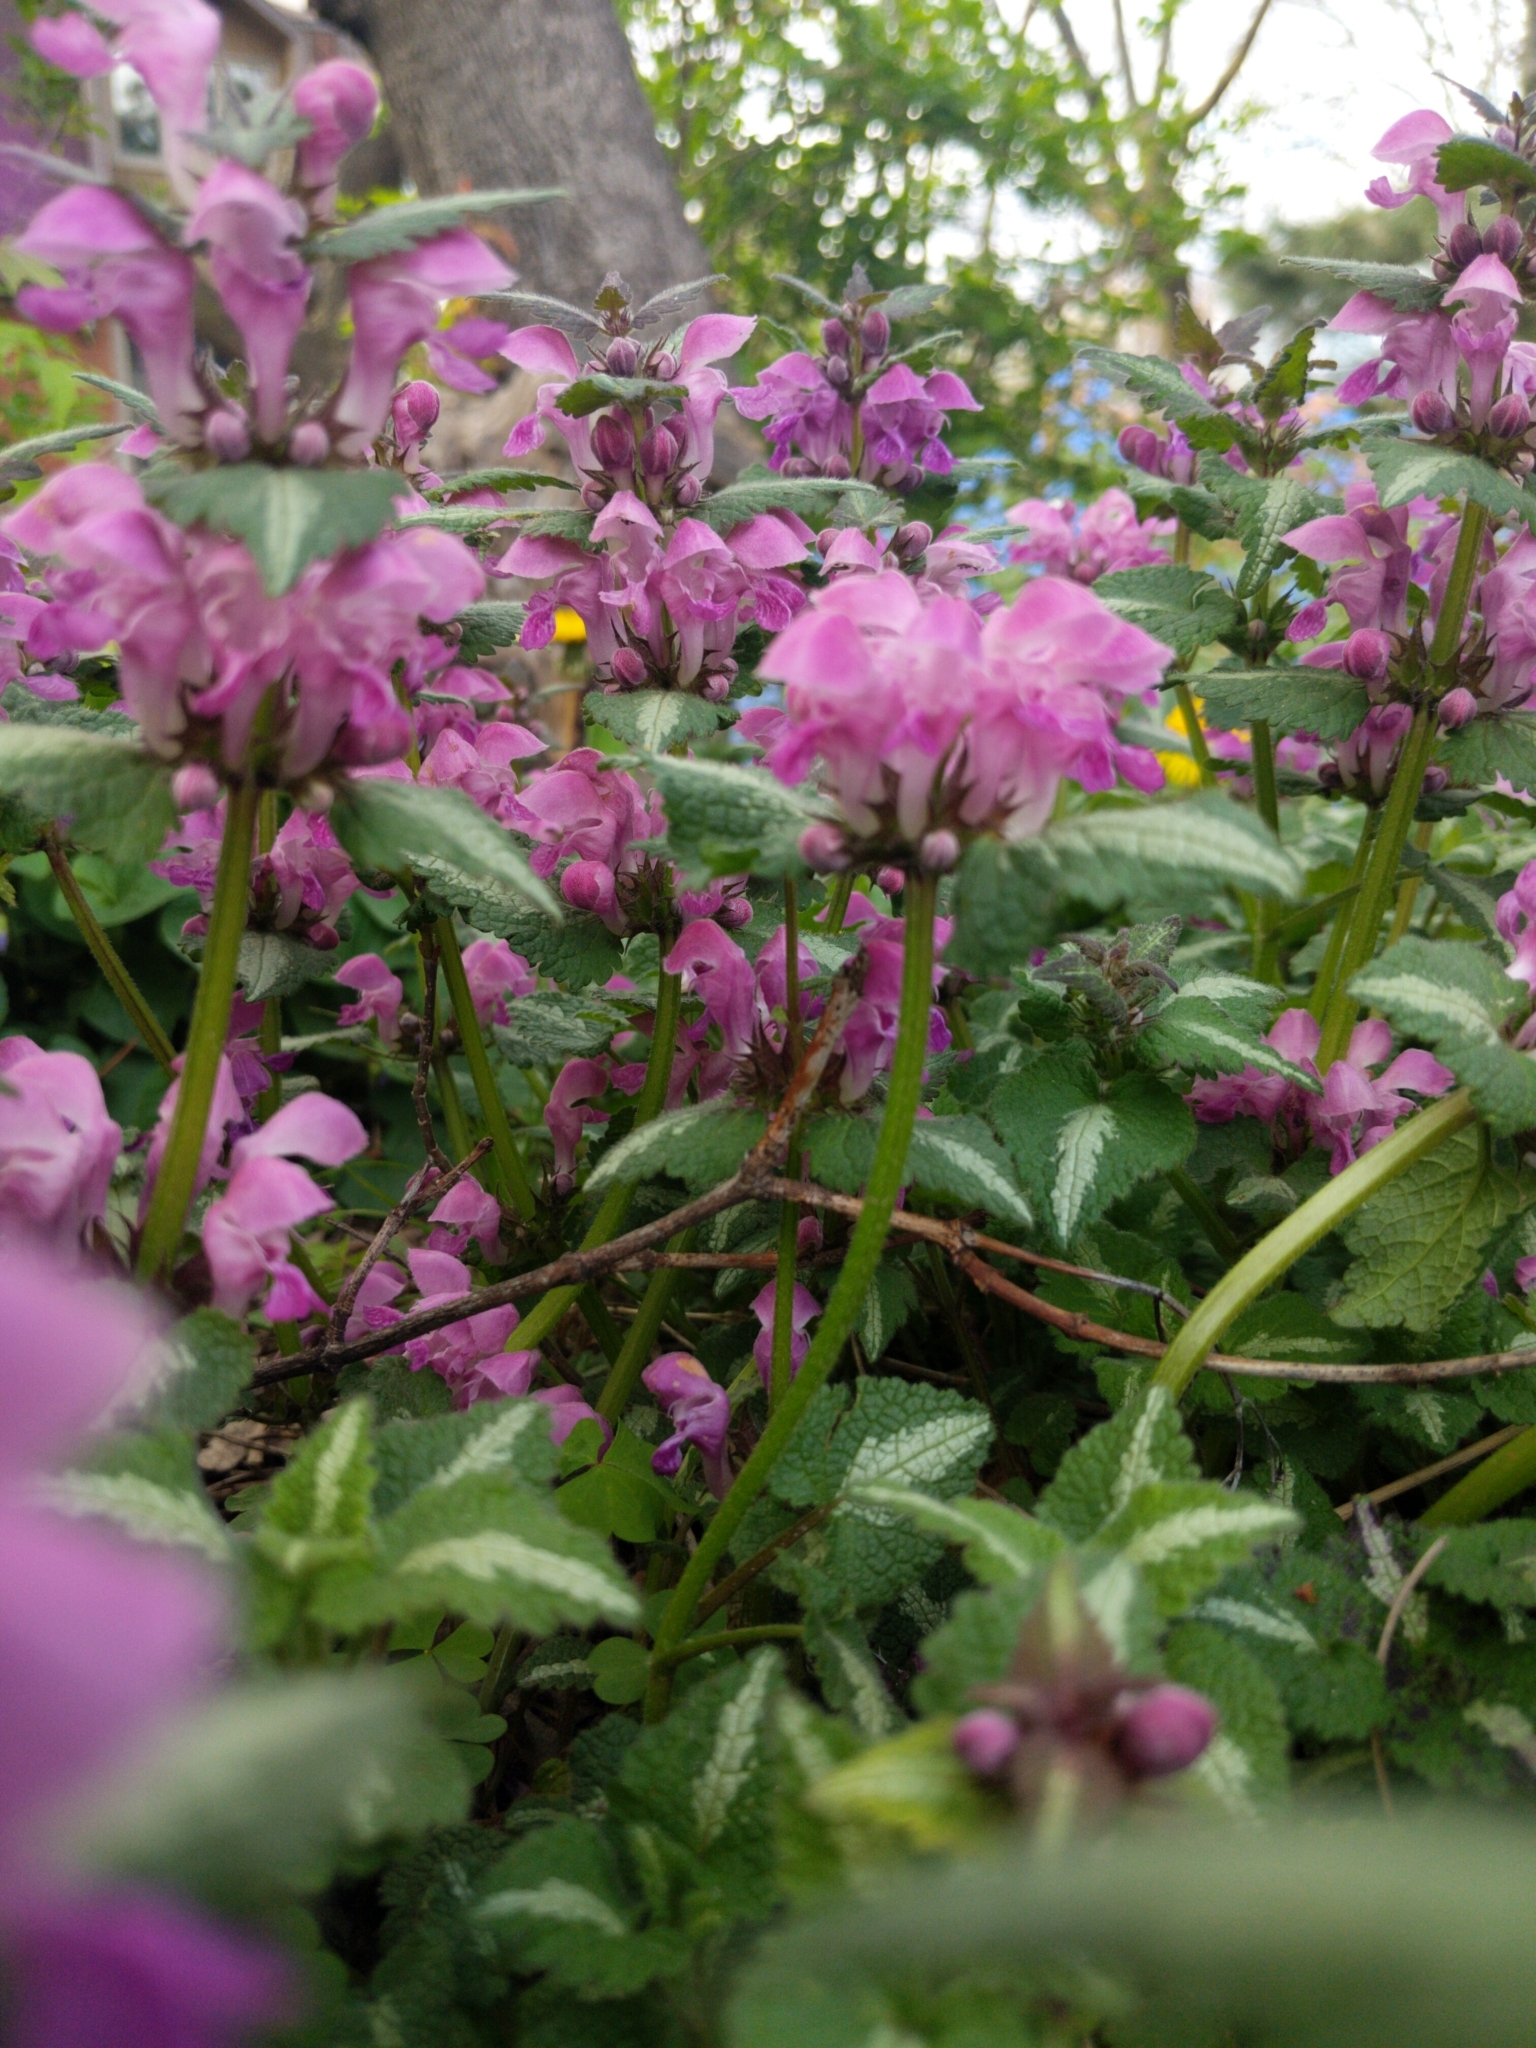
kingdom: Plantae
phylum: Tracheophyta
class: Magnoliopsida
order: Lamiales
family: Lamiaceae
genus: Lamium
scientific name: Lamium maculatum
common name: Spotted dead-nettle
